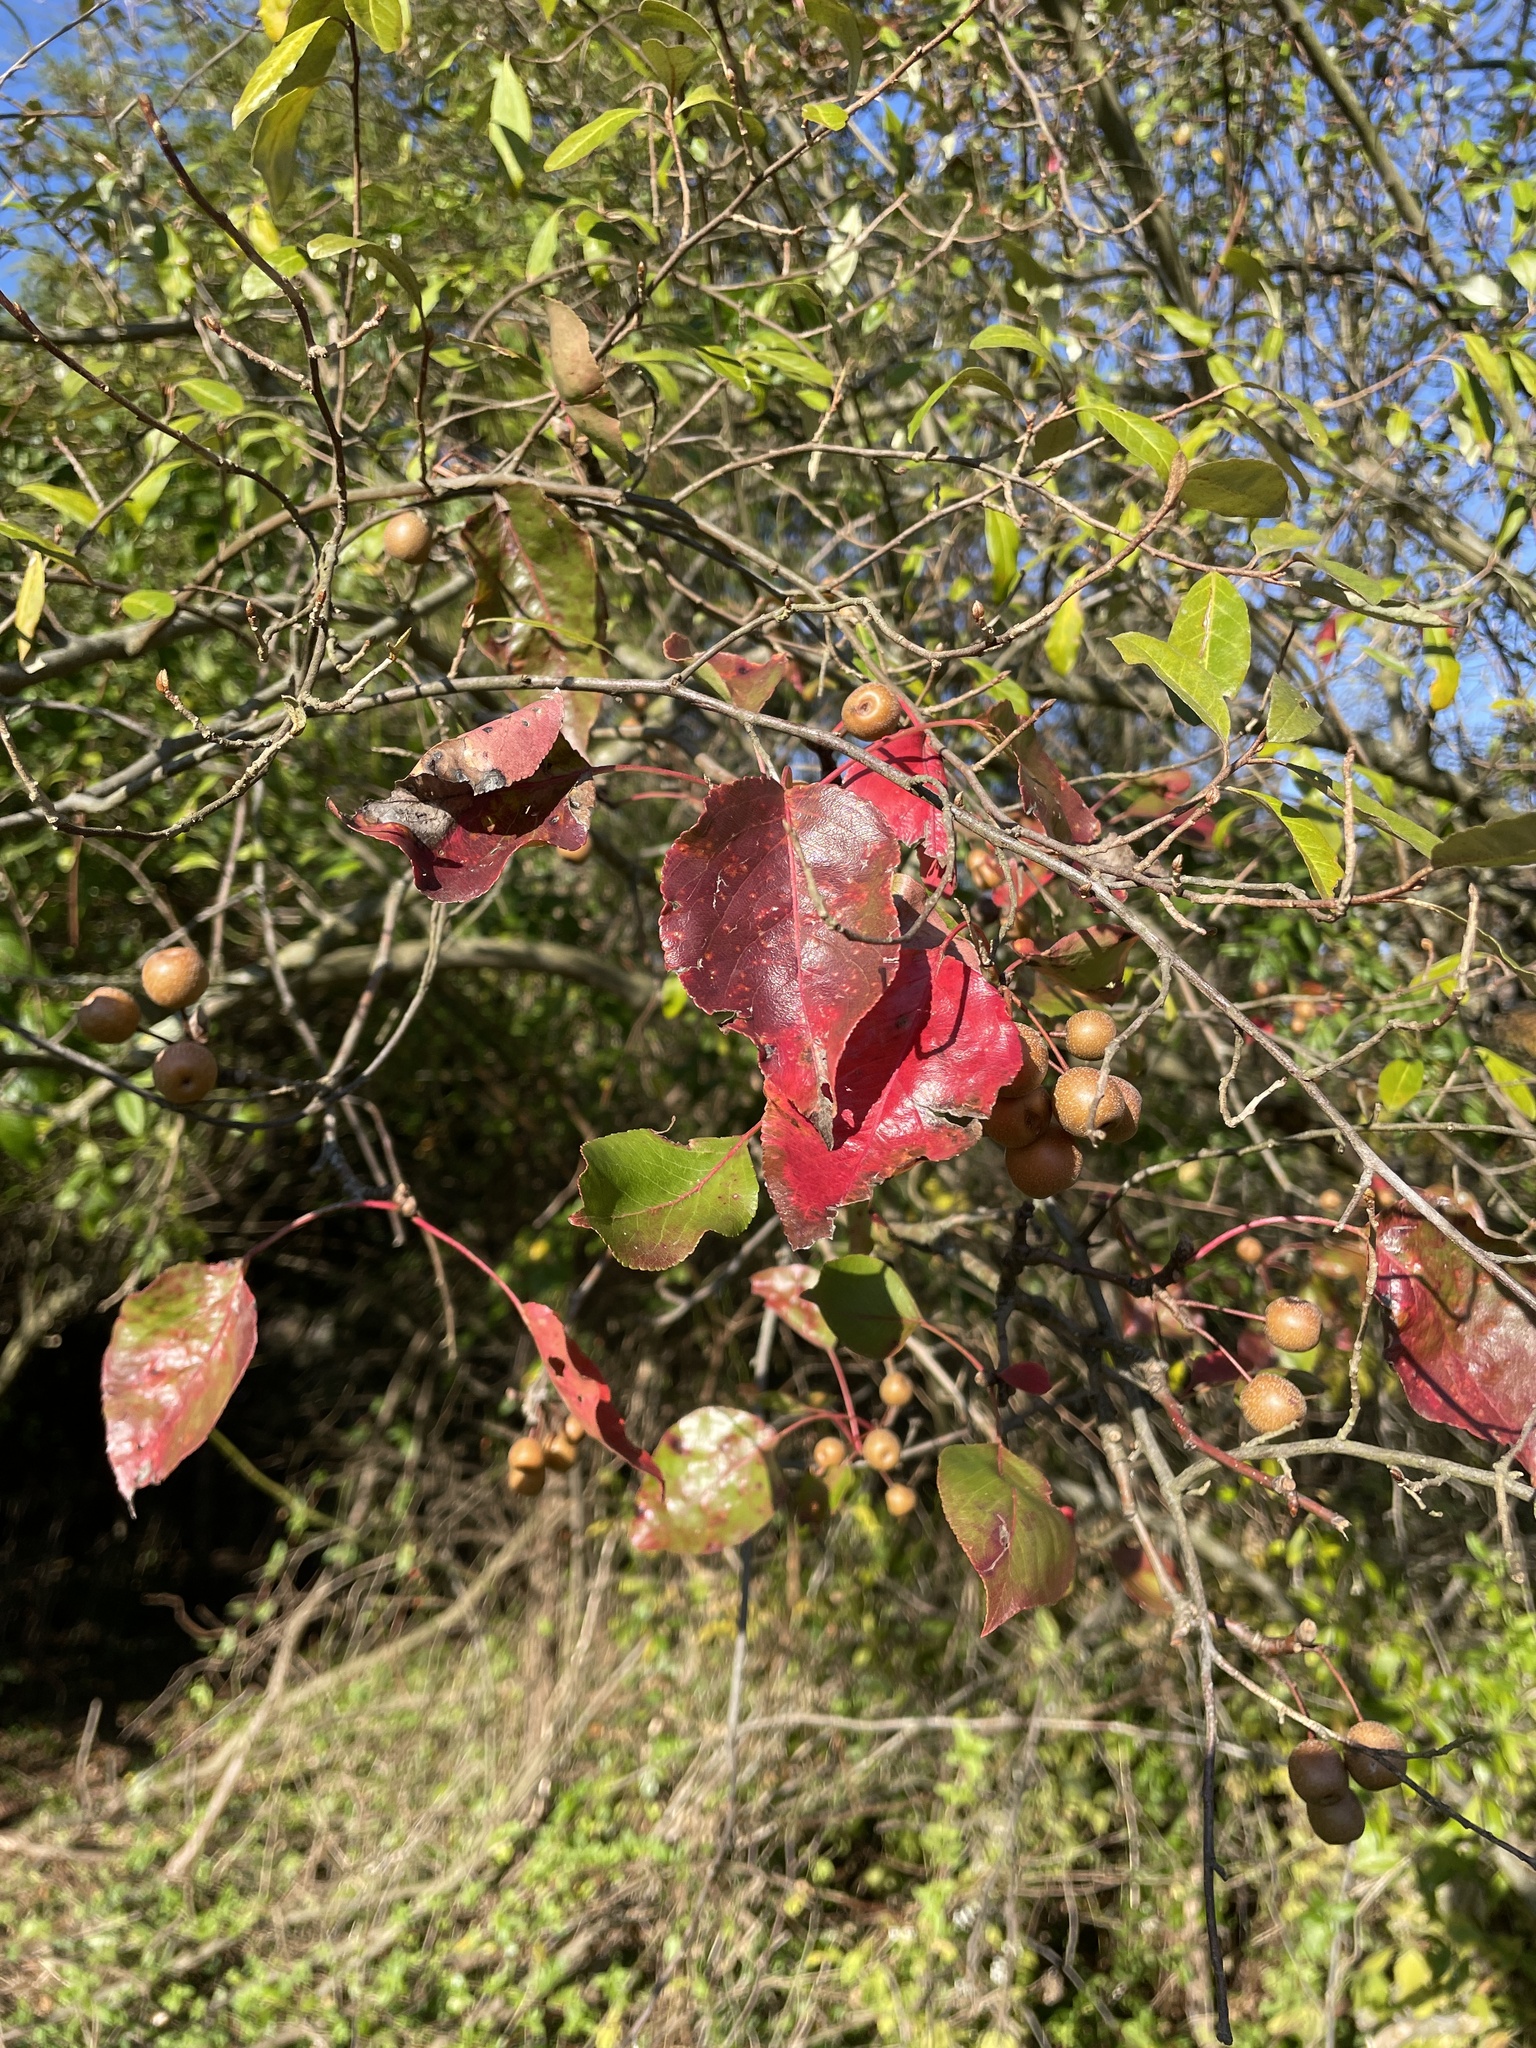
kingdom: Plantae
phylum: Tracheophyta
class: Magnoliopsida
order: Rosales
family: Rosaceae
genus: Pyrus
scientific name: Pyrus calleryana
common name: Callery pear
